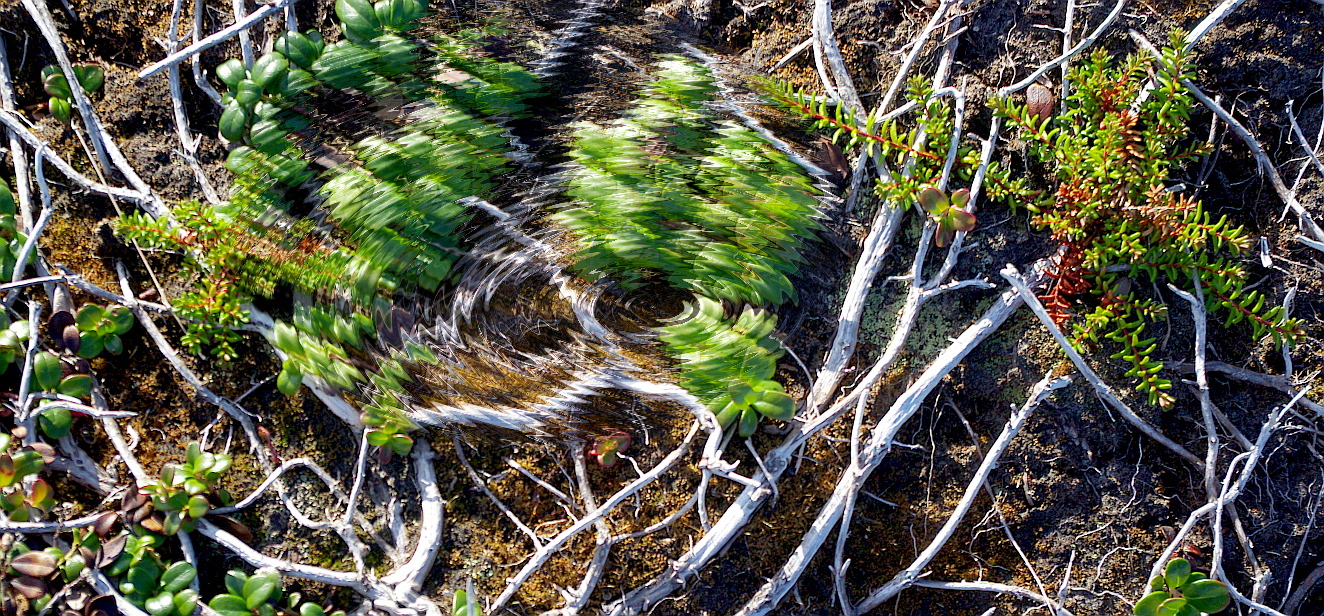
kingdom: Plantae
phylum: Tracheophyta
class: Magnoliopsida
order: Ericales
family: Ericaceae
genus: Arctostaphylos
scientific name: Arctostaphylos uva-ursi
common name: Bearberry
